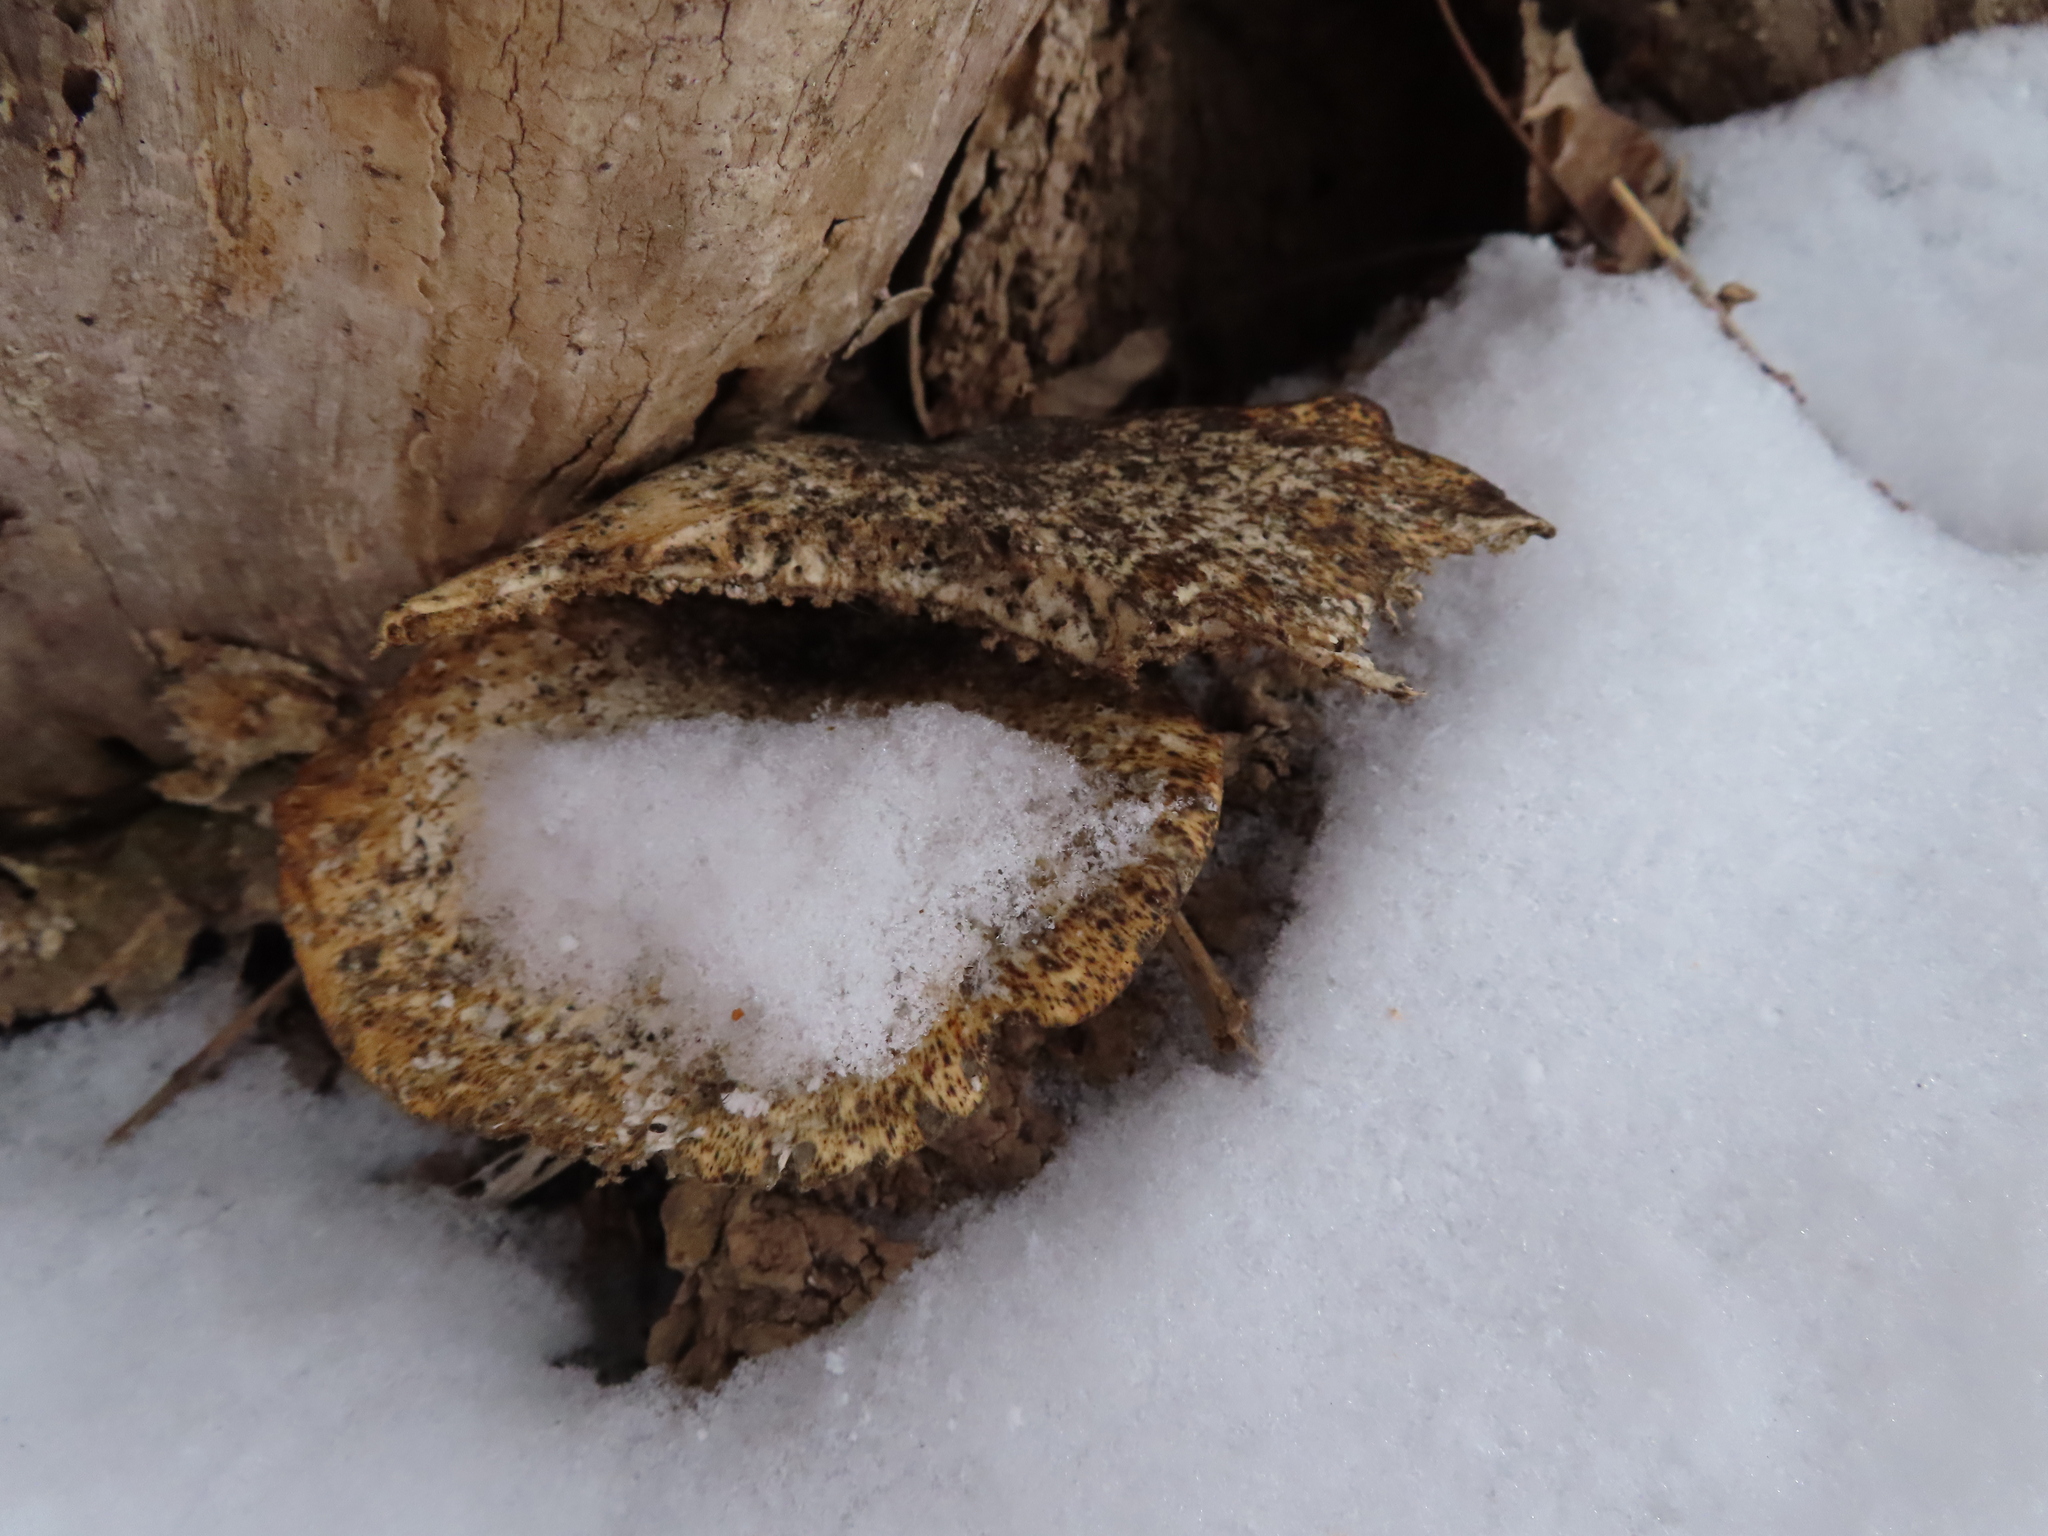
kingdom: Fungi
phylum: Basidiomycota
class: Agaricomycetes
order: Polyporales
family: Polyporaceae
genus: Cerioporus
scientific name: Cerioporus squamosus
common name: Dryad's saddle
